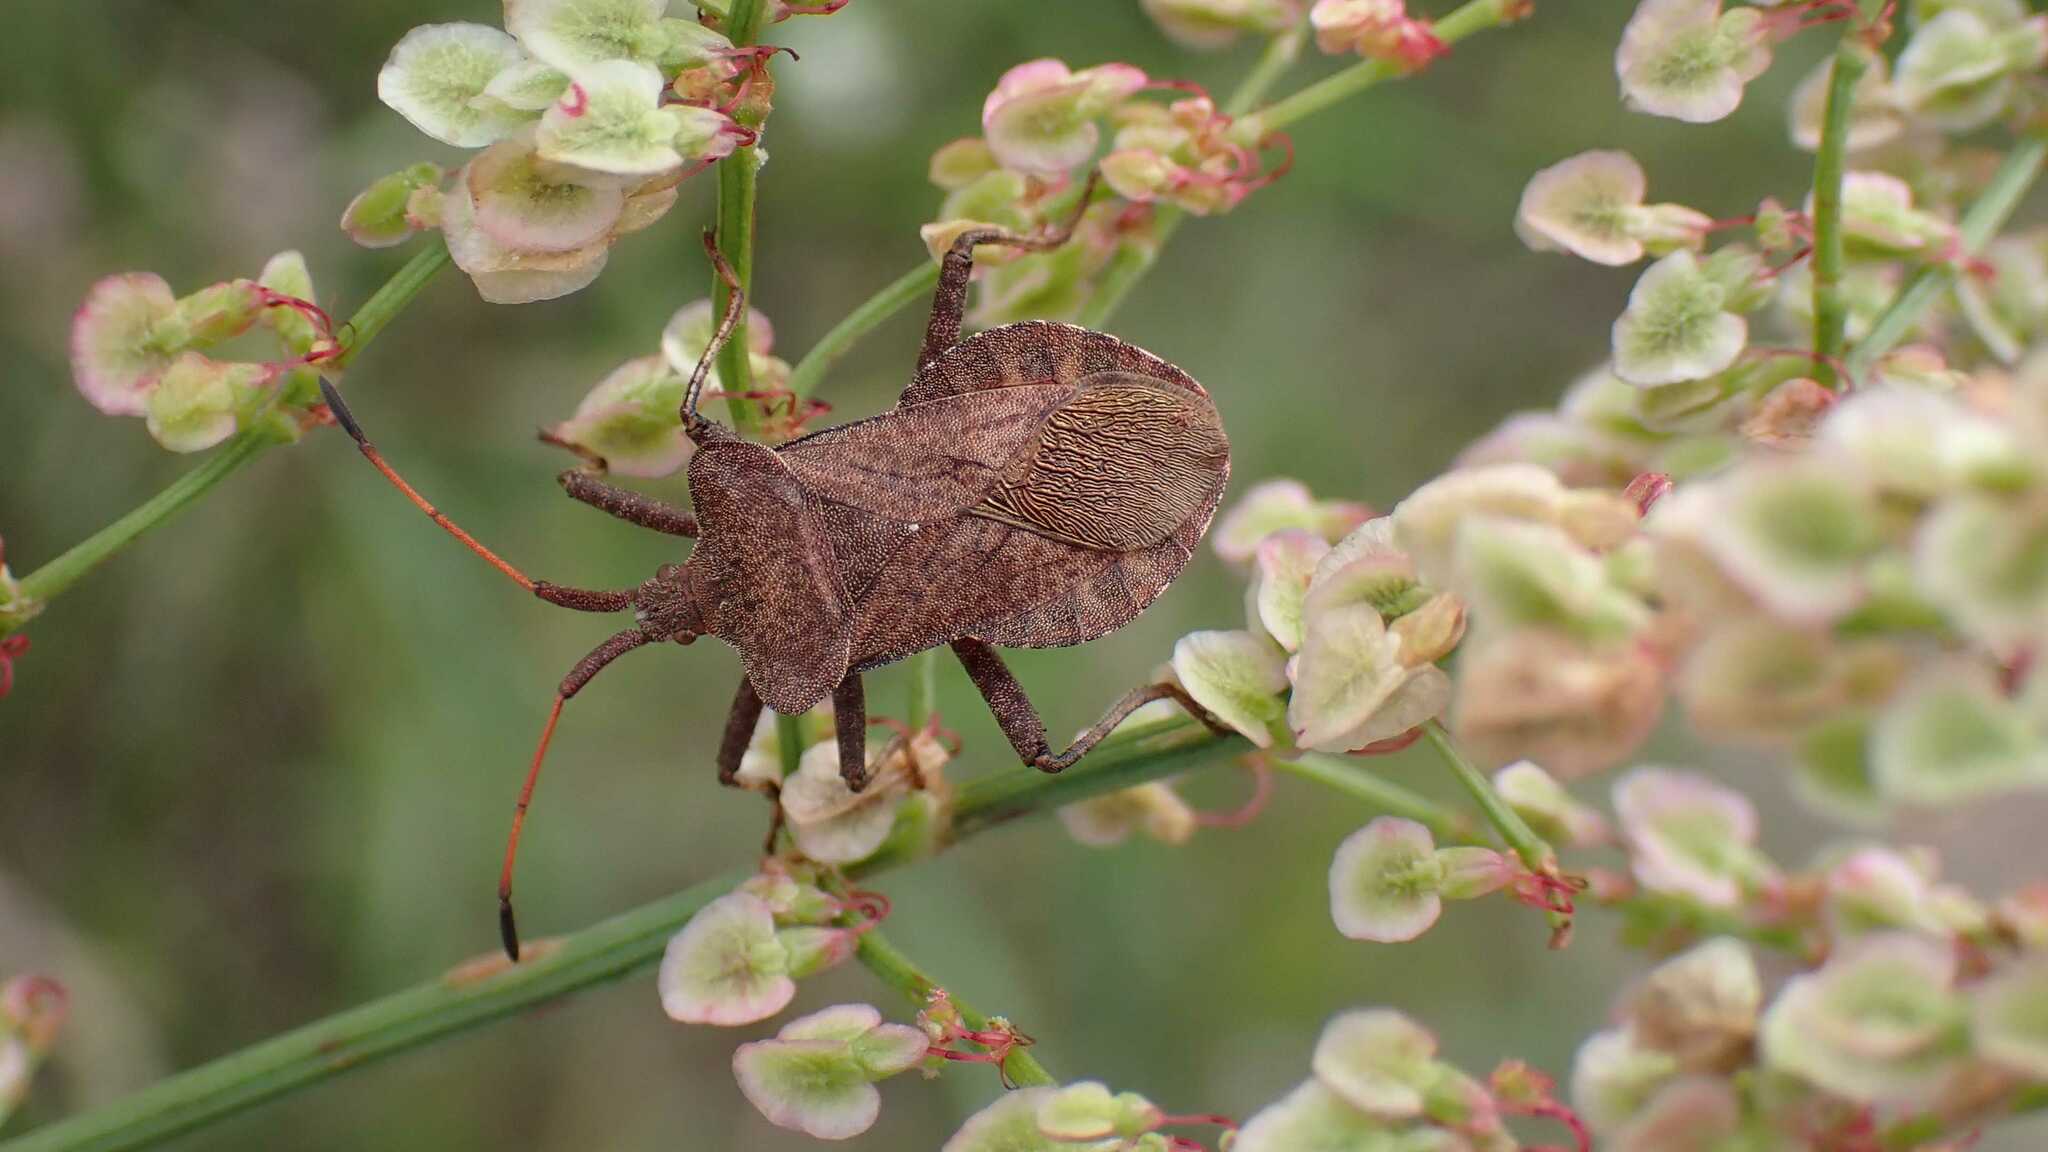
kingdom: Animalia
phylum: Arthropoda
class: Insecta
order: Hemiptera
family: Coreidae
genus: Coreus
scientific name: Coreus marginatus
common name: Dock bug
